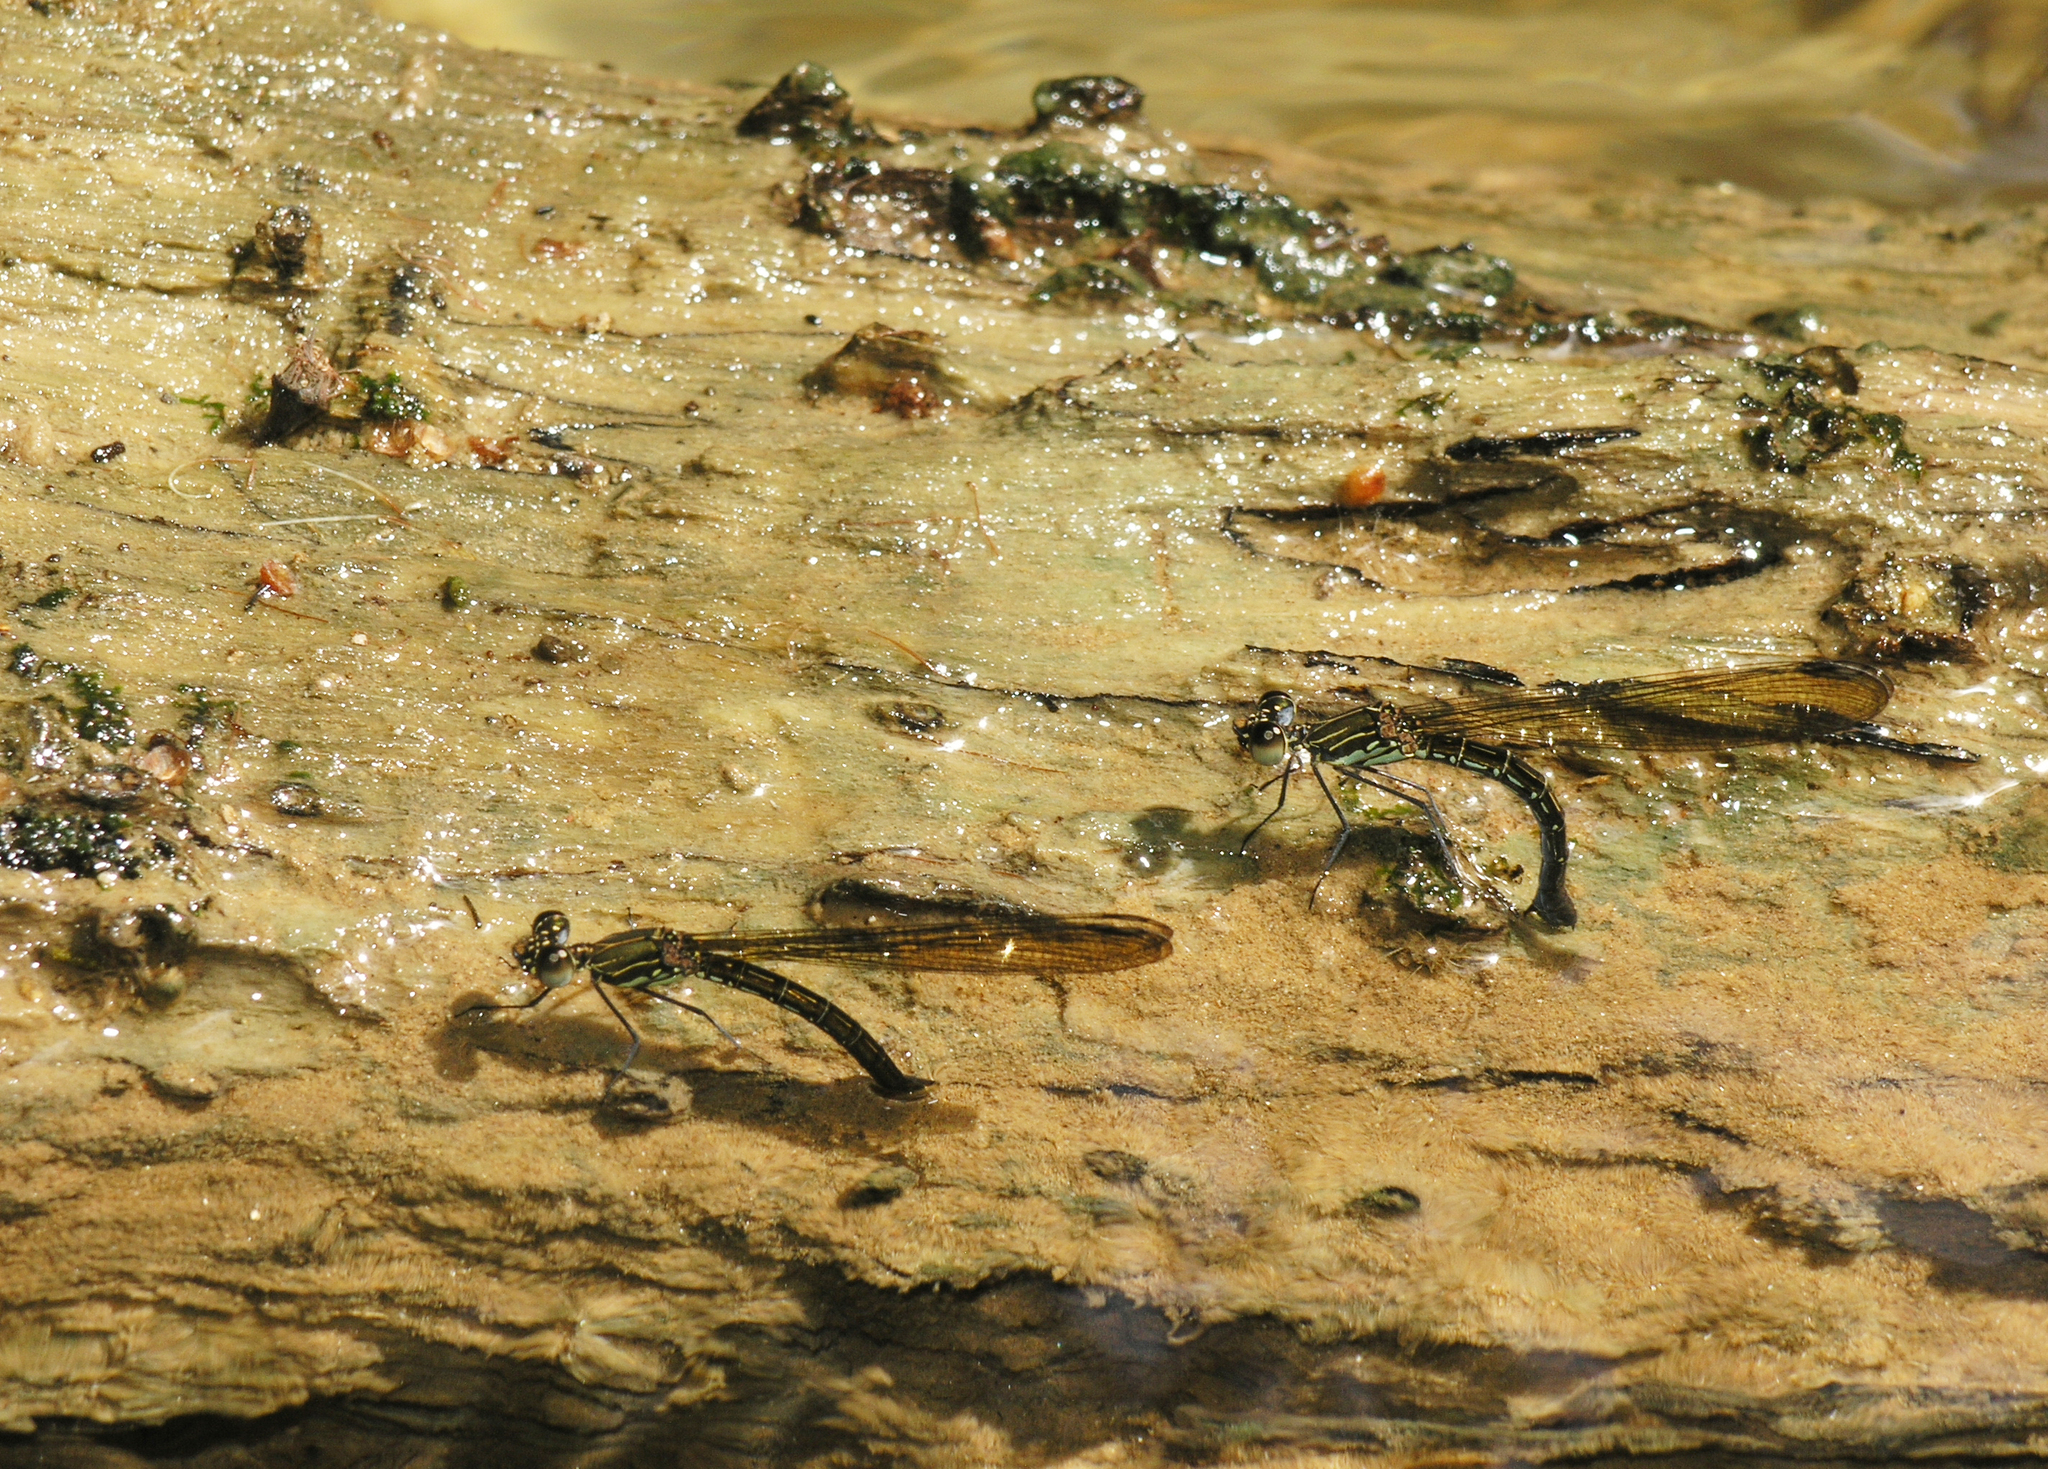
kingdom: Animalia
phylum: Arthropoda
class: Insecta
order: Odonata
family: Chlorocyphidae
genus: Heliocypha
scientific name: Heliocypha biforata
